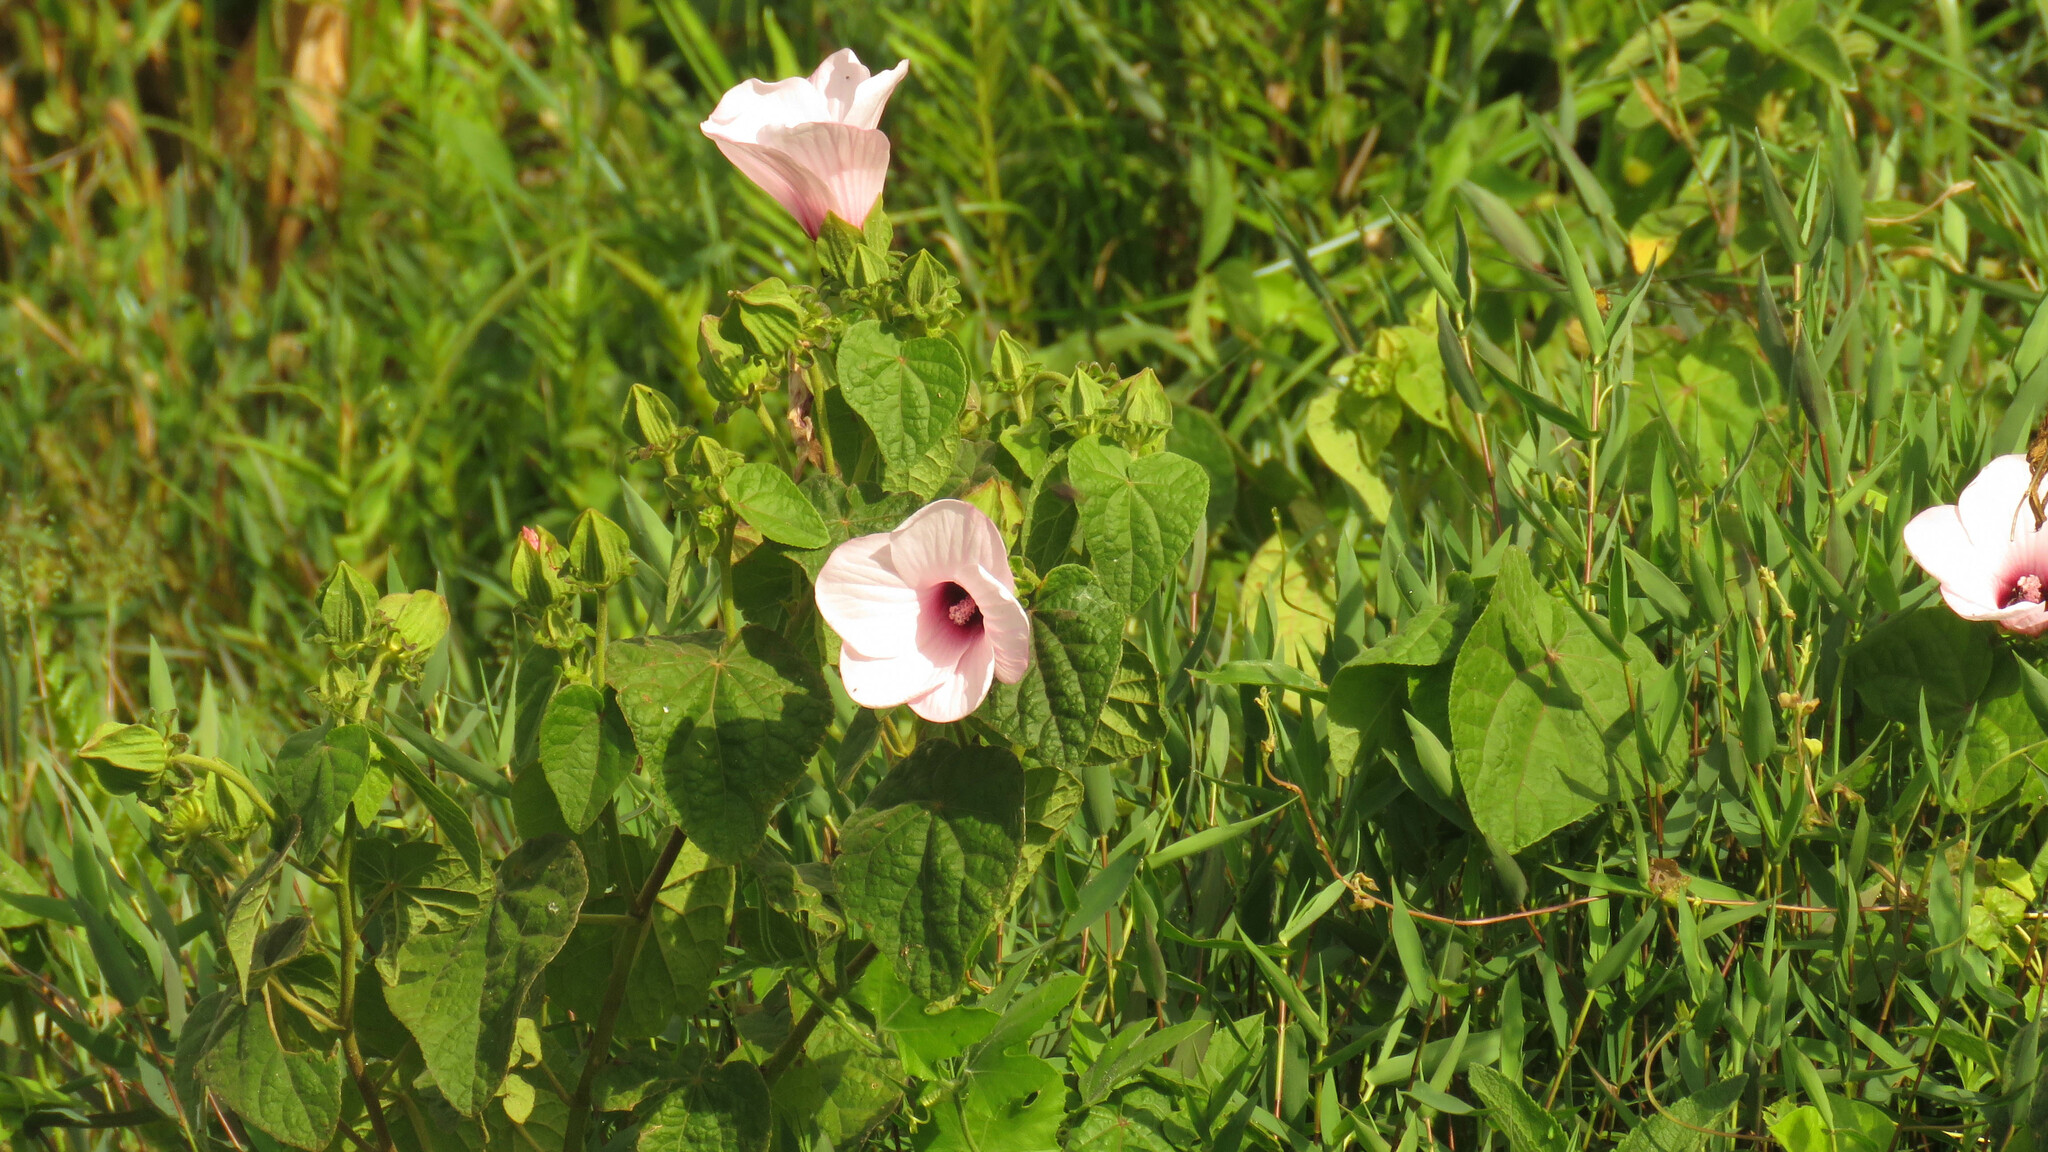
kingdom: Plantae
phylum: Tracheophyta
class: Magnoliopsida
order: Malvales
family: Malvaceae
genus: Hibiscus
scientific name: Hibiscus sororius
